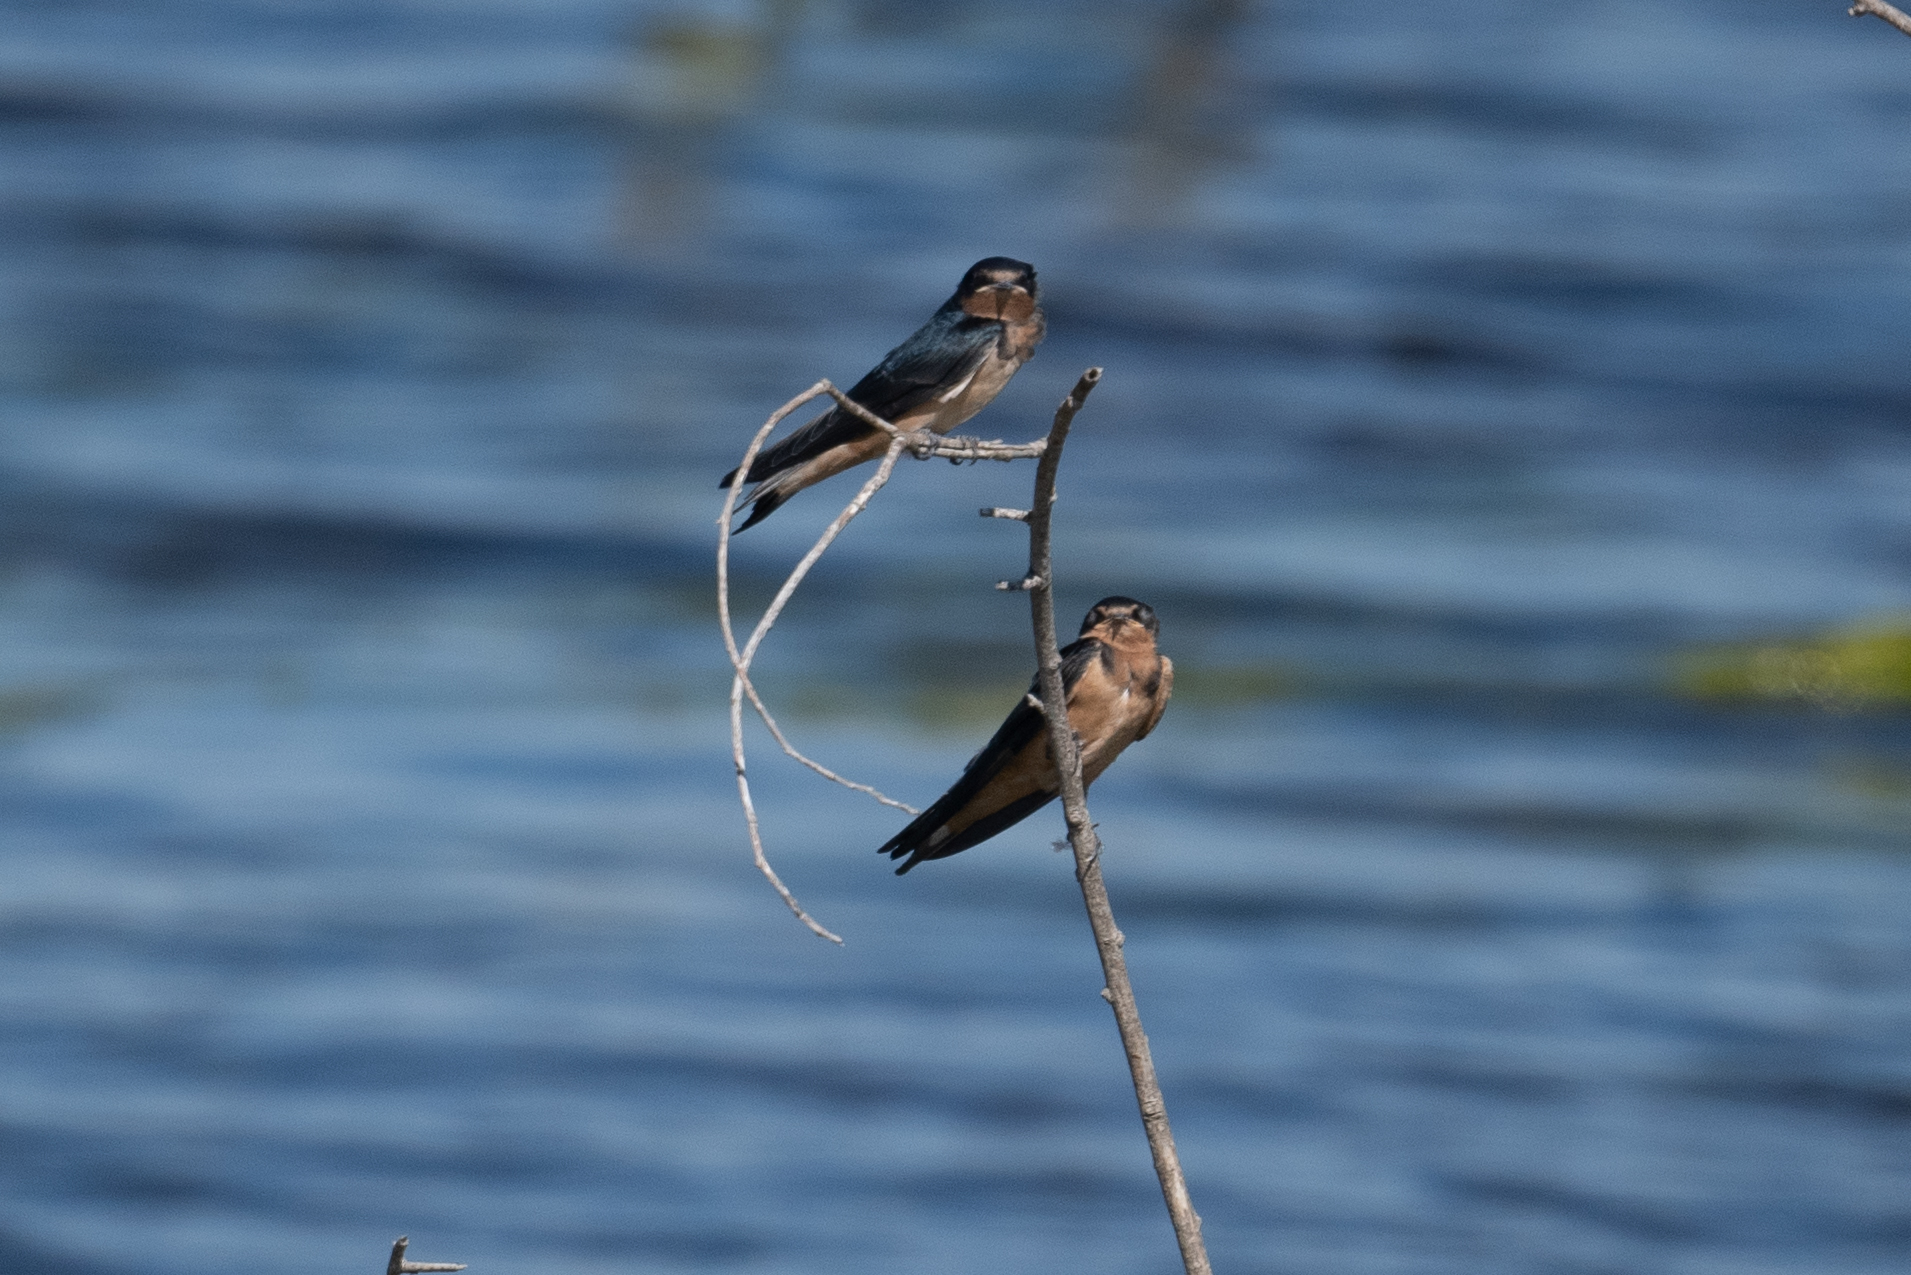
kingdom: Animalia
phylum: Chordata
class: Aves
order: Passeriformes
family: Hirundinidae
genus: Hirundo
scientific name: Hirundo rustica
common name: Barn swallow
